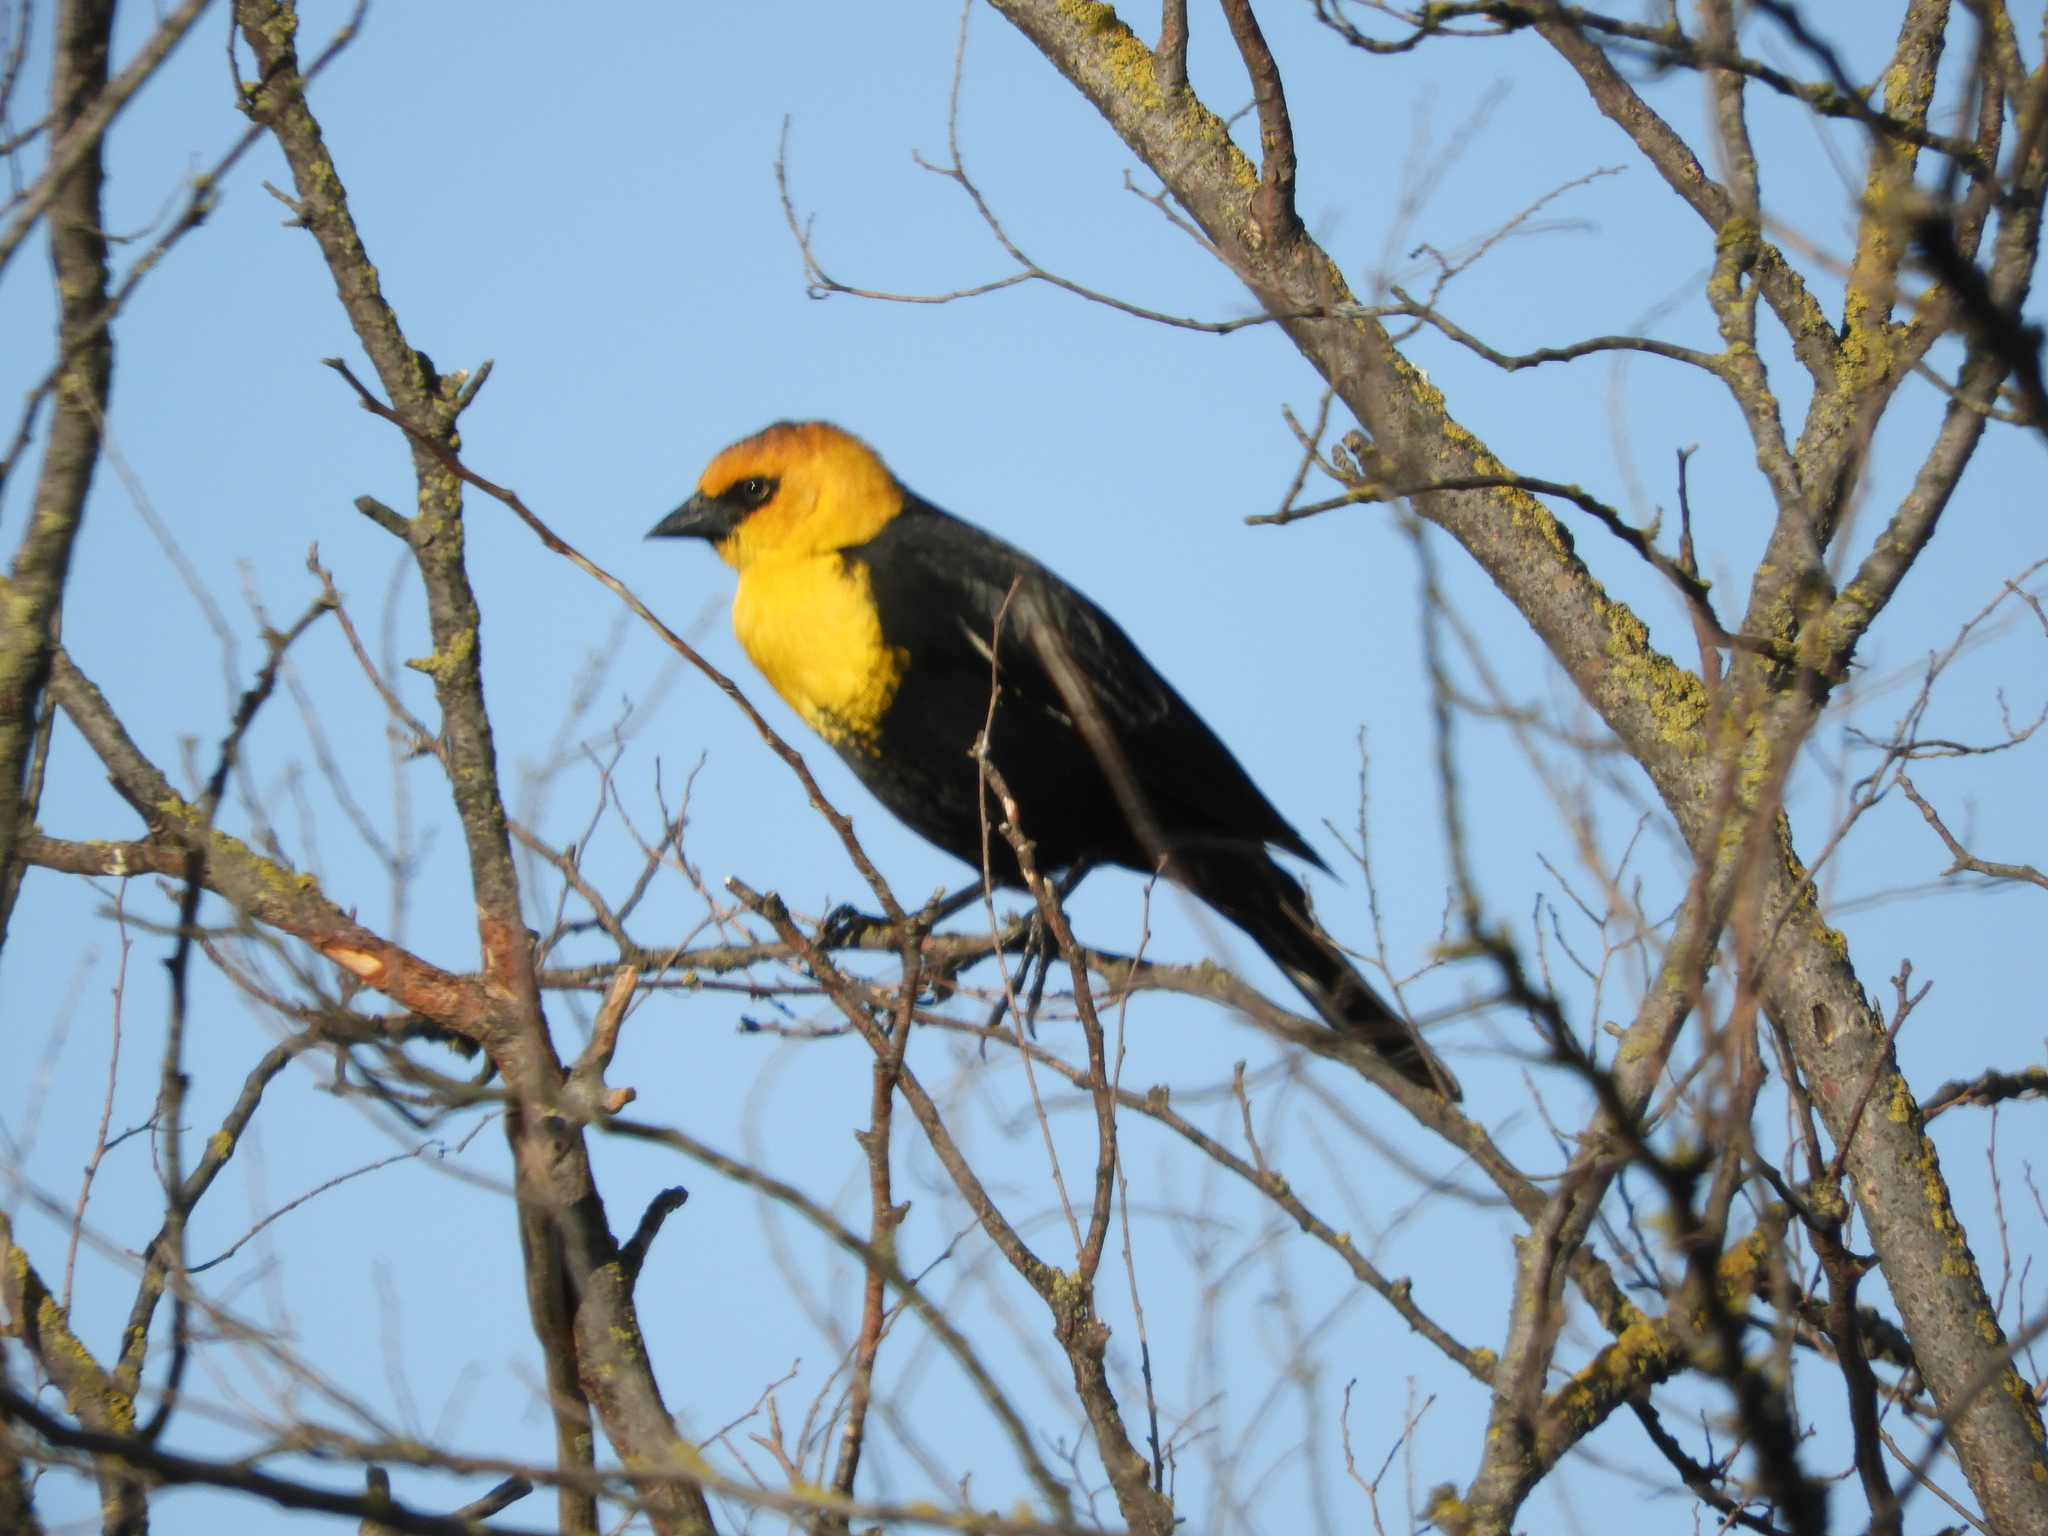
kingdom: Animalia
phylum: Chordata
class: Aves
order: Passeriformes
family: Icteridae
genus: Xanthocephalus
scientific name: Xanthocephalus xanthocephalus
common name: Yellow-headed blackbird
